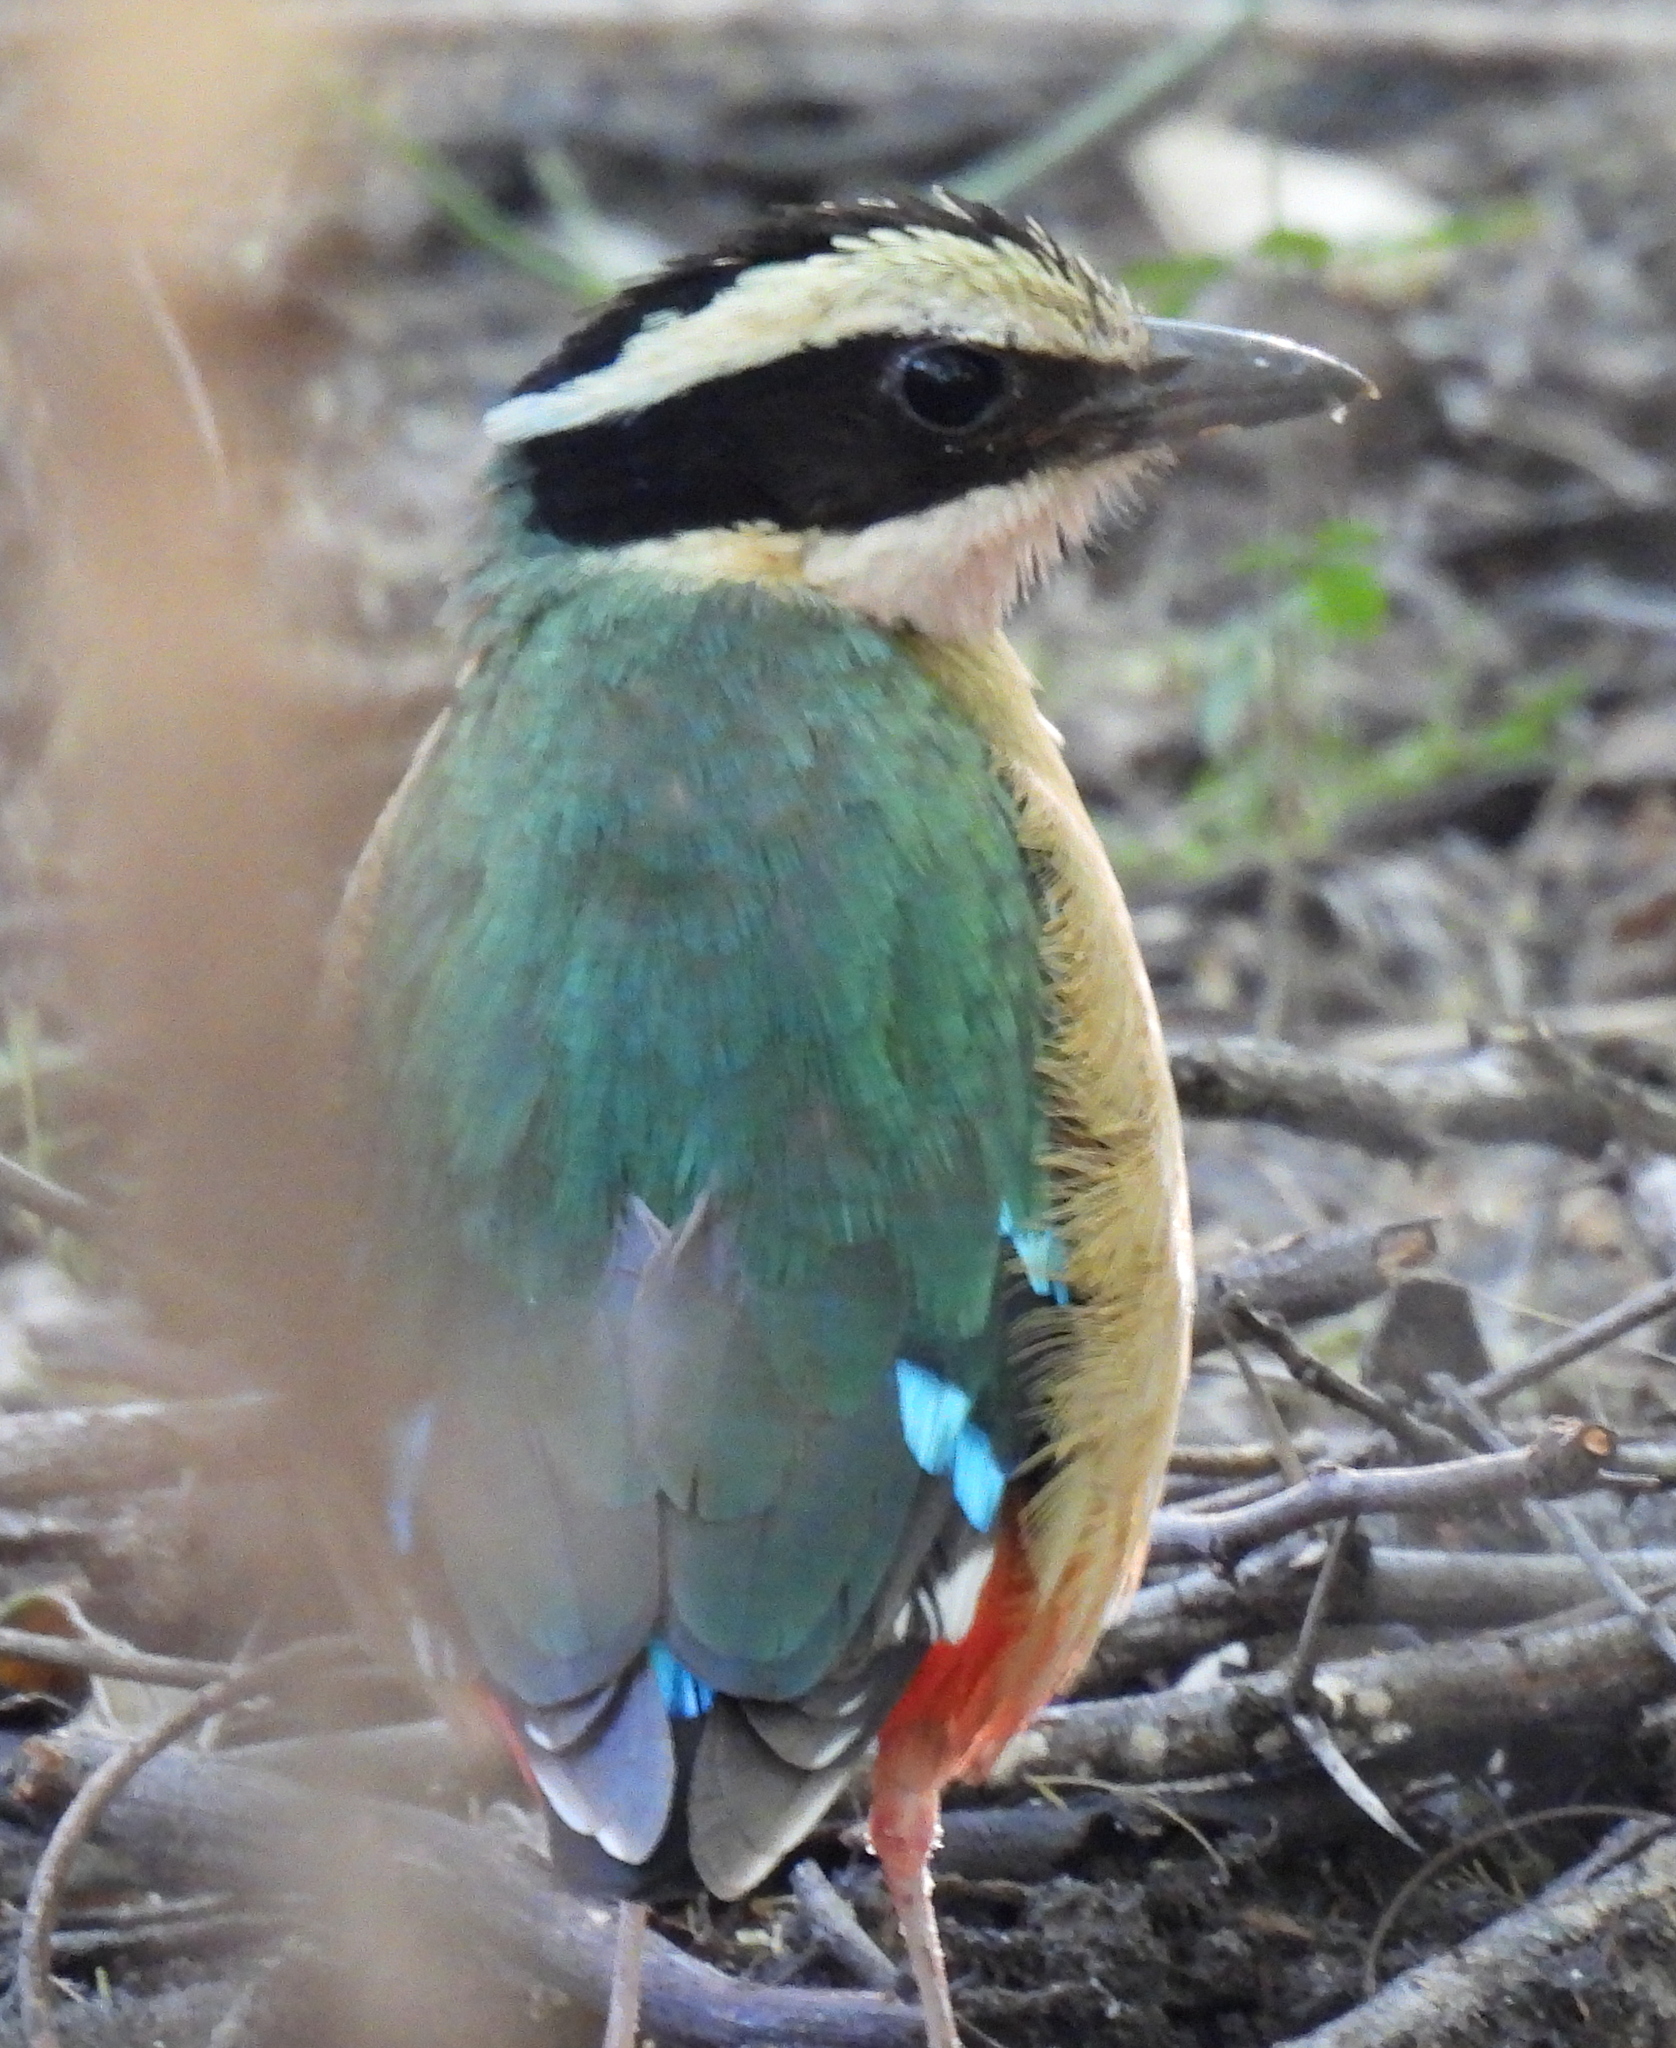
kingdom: Animalia
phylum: Chordata
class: Aves
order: Passeriformes
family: Pittidae
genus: Pitta
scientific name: Pitta angolensis
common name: African pitta
